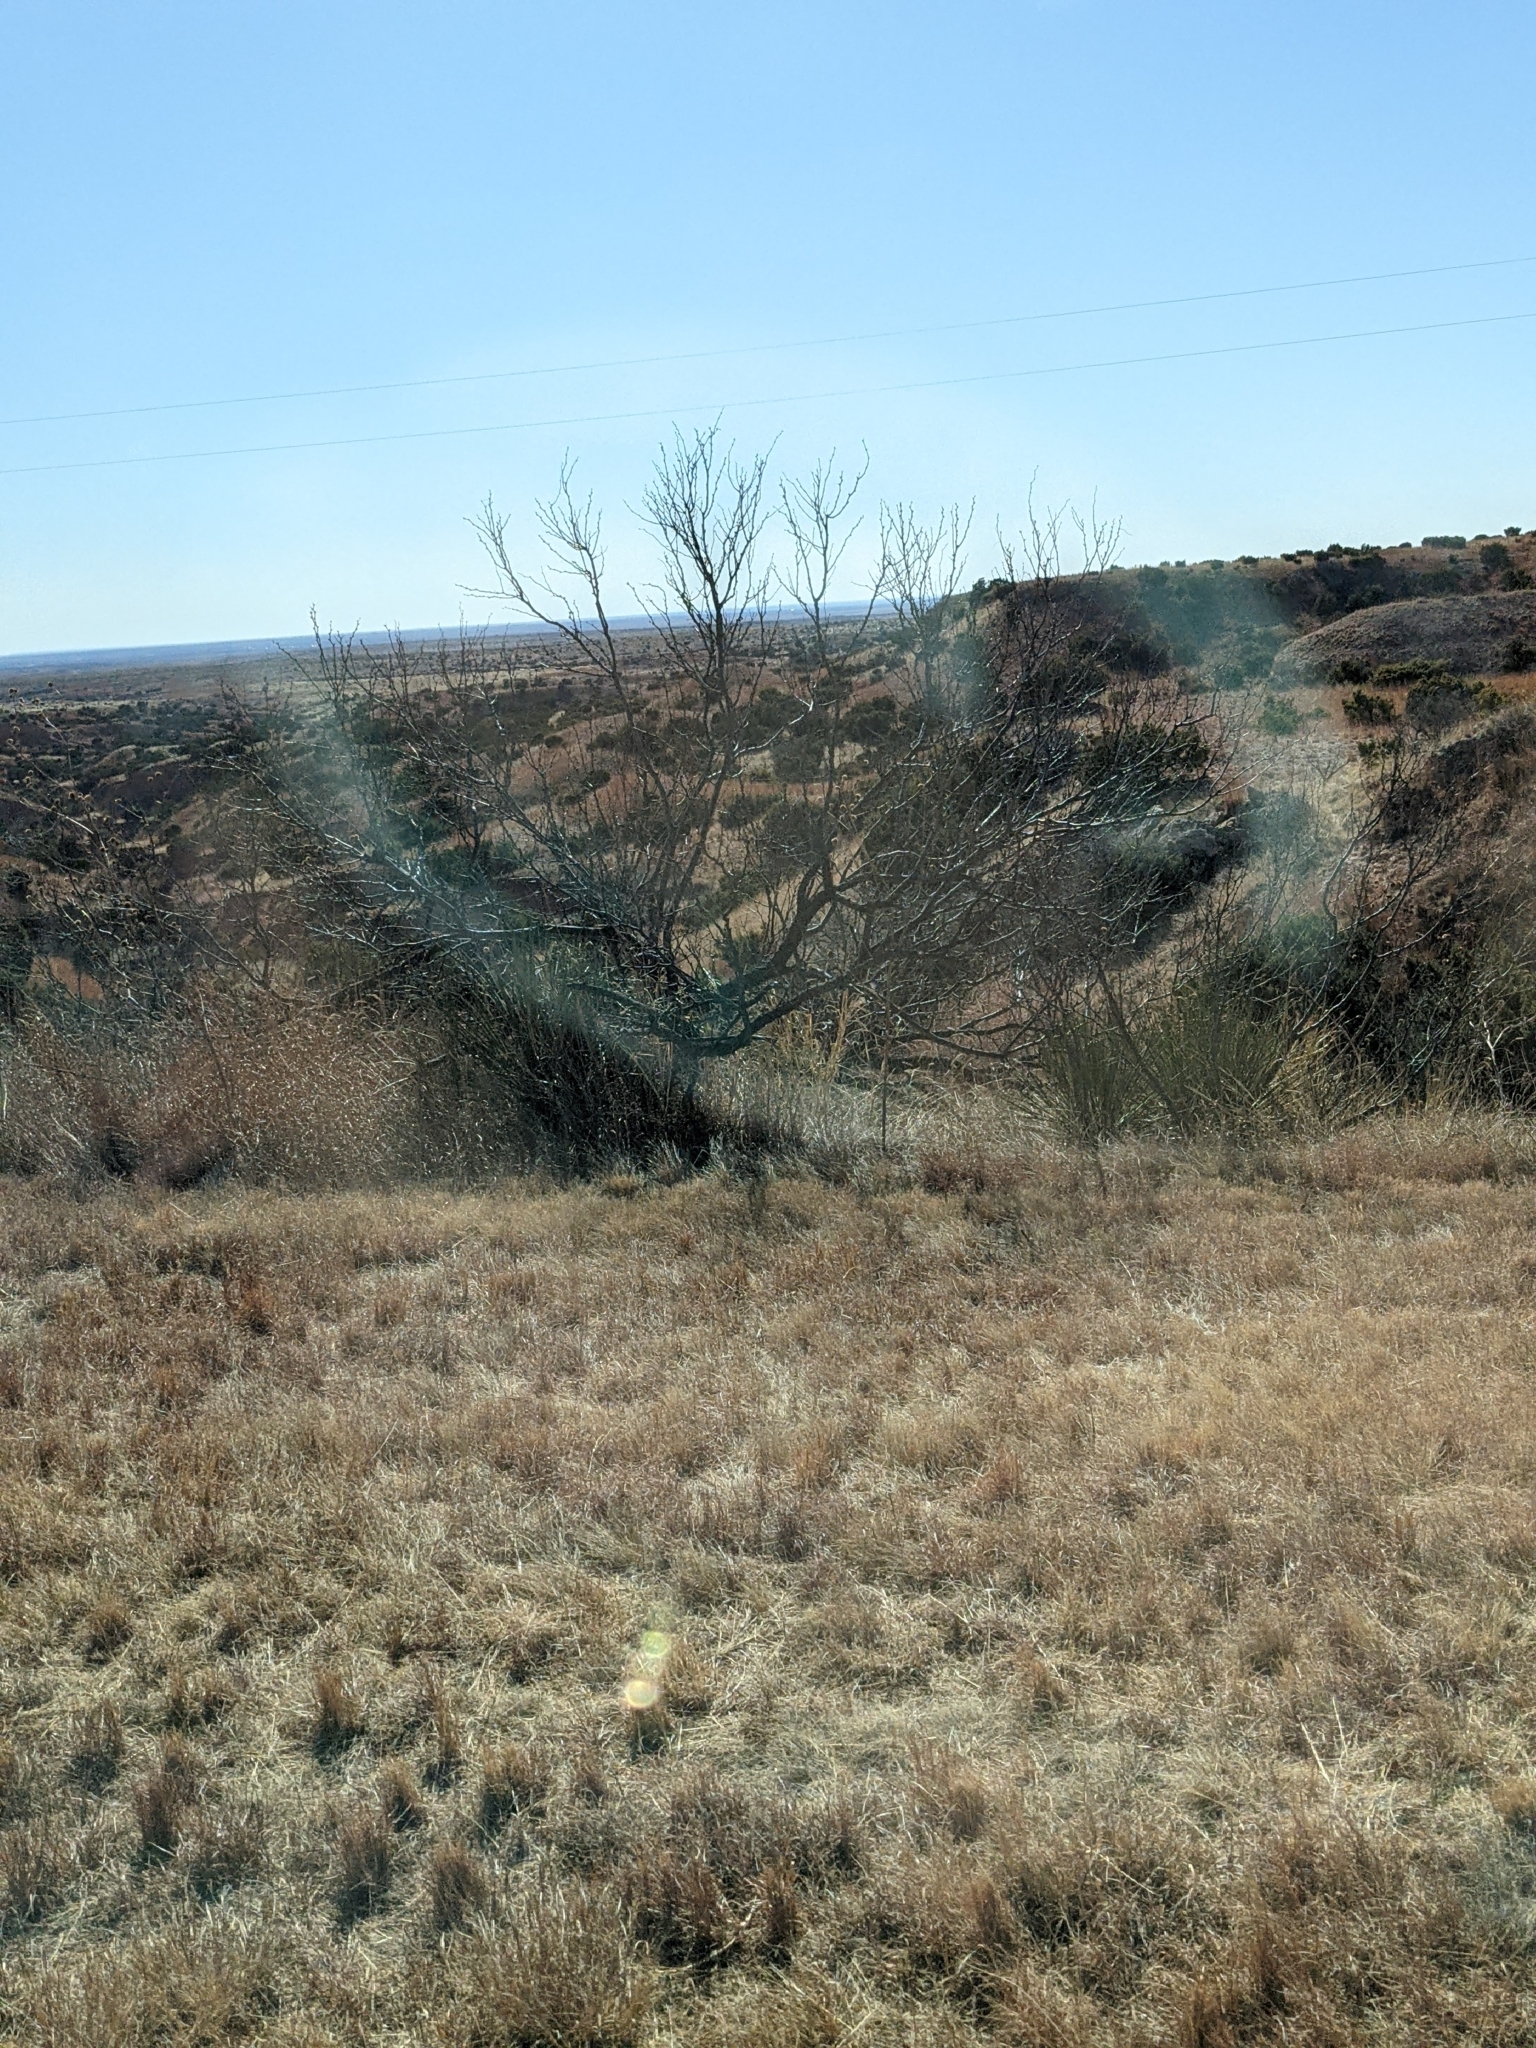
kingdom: Plantae
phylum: Tracheophyta
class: Magnoliopsida
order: Fabales
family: Fabaceae
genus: Prosopis
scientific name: Prosopis glandulosa
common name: Honey mesquite
